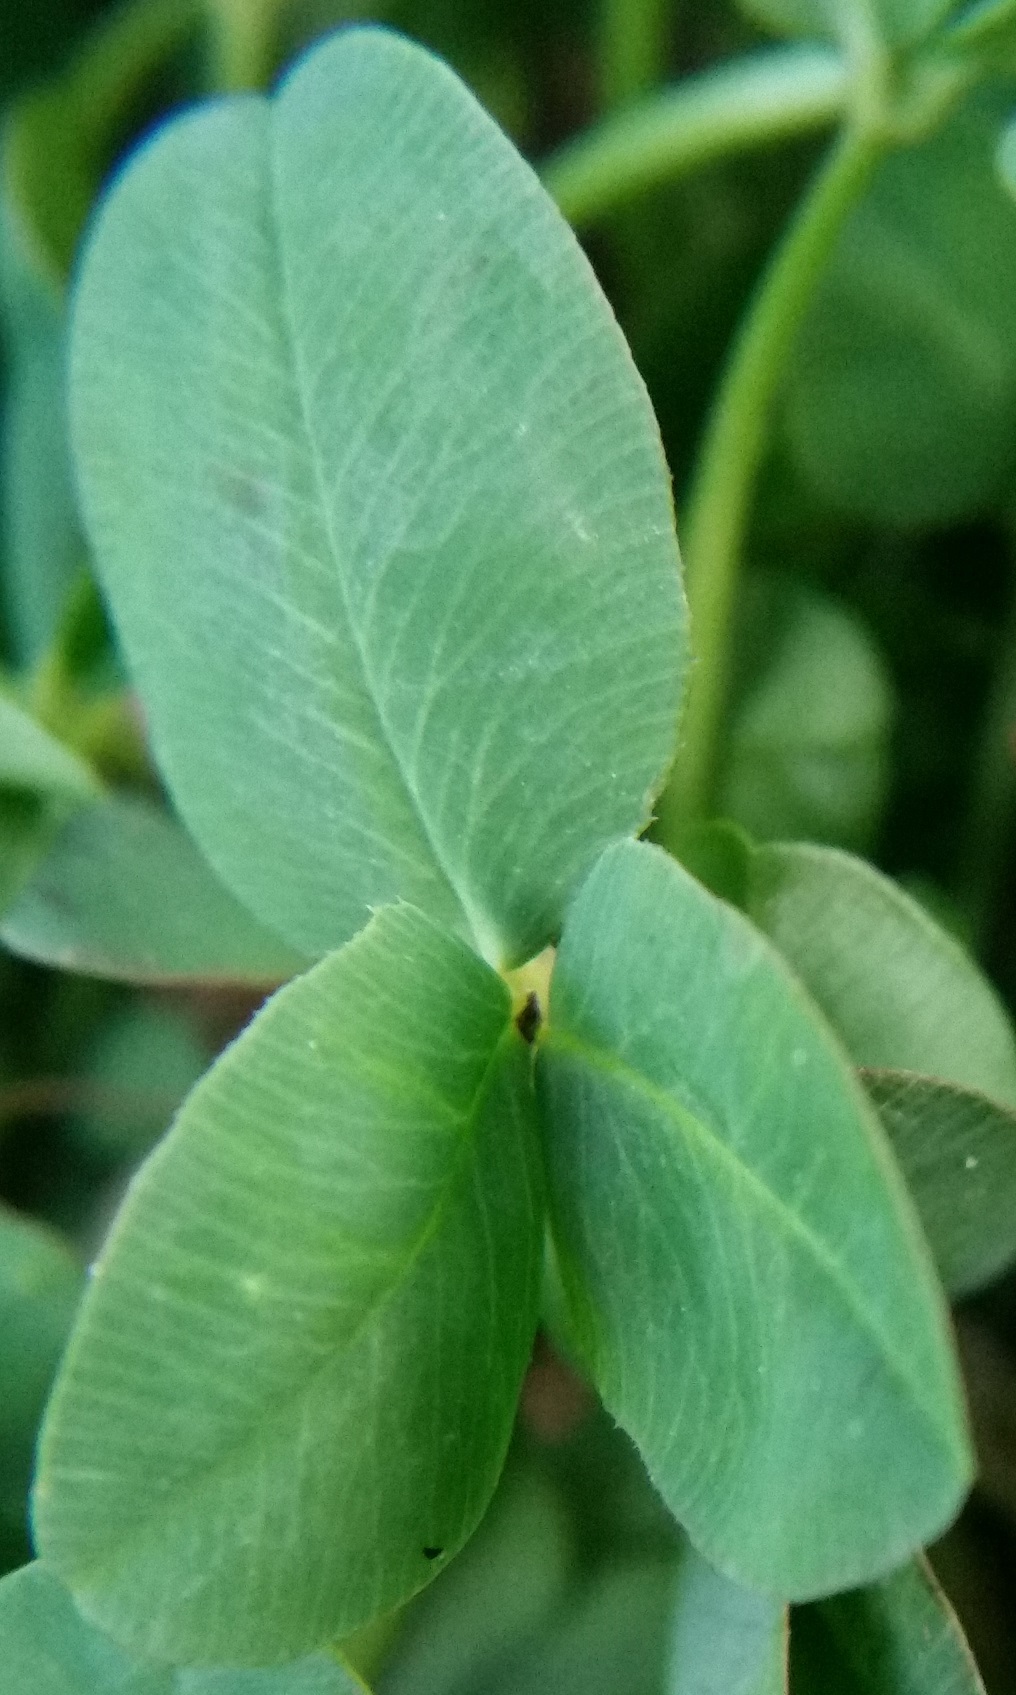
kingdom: Plantae
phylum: Tracheophyta
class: Magnoliopsida
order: Fabales
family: Fabaceae
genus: Trifolium
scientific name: Trifolium repens
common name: White clover
